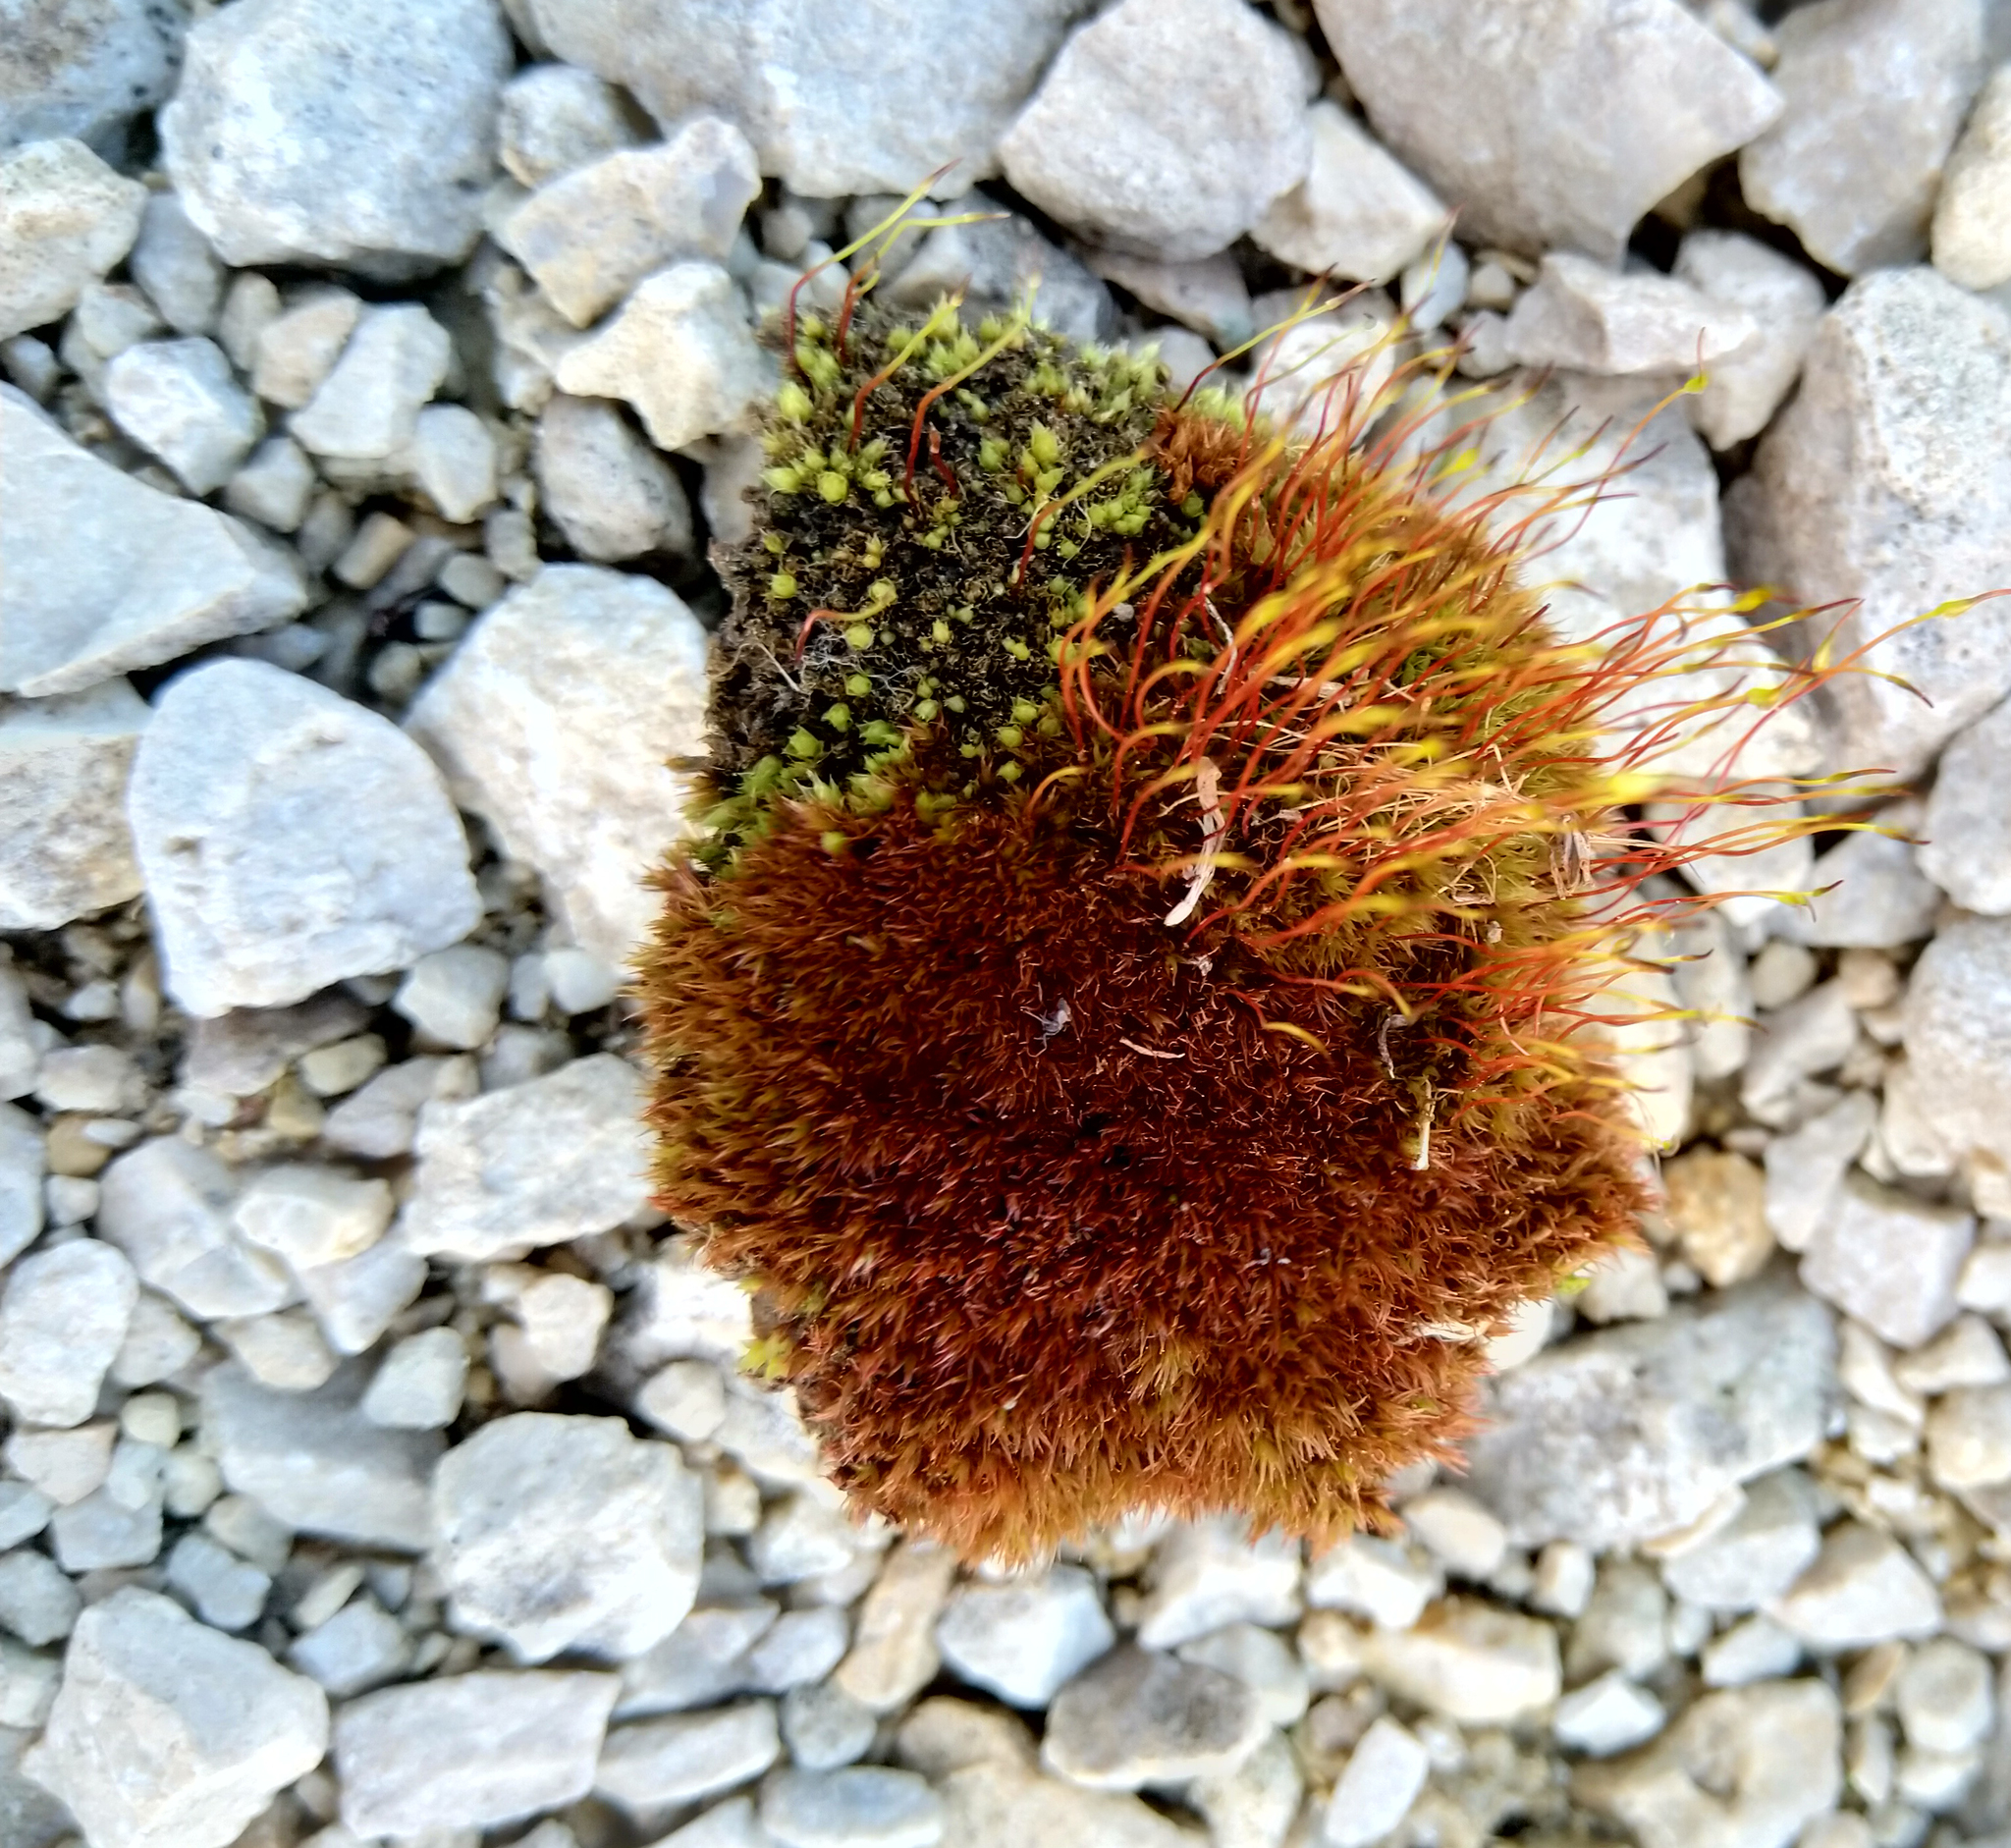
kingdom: Plantae
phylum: Bryophyta
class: Bryopsida
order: Dicranales
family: Ditrichaceae
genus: Ceratodon
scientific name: Ceratodon purpureus
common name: Redshank
